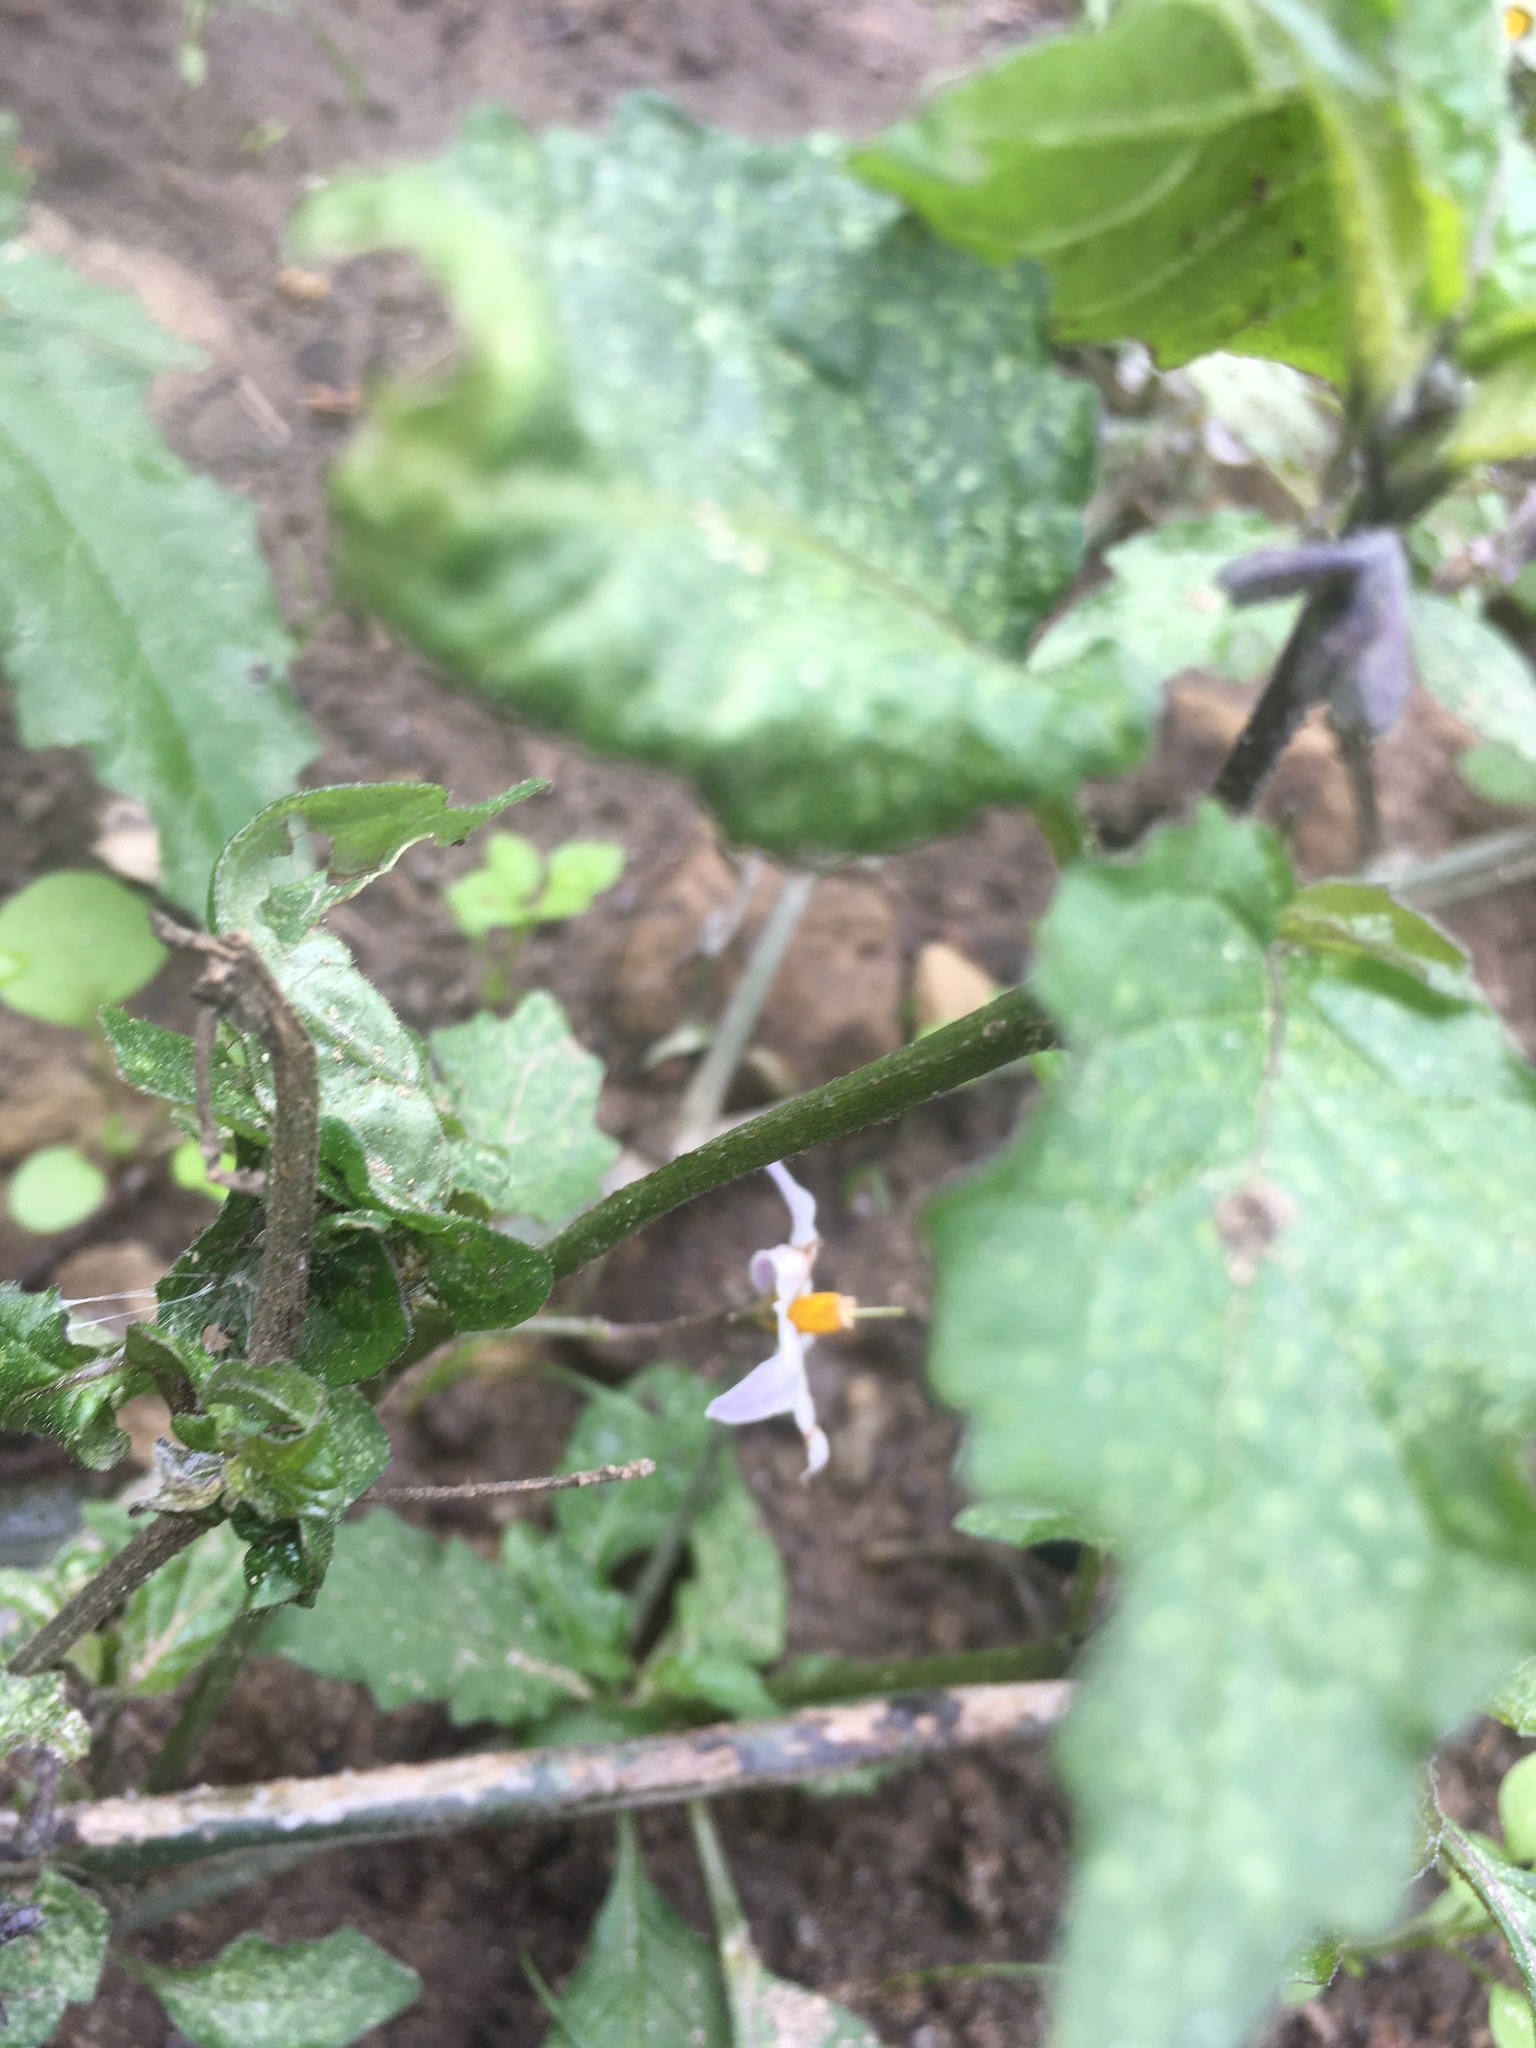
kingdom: Plantae
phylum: Tracheophyta
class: Magnoliopsida
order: Solanales
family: Solanaceae
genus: Solanum
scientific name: Solanum douglasii
